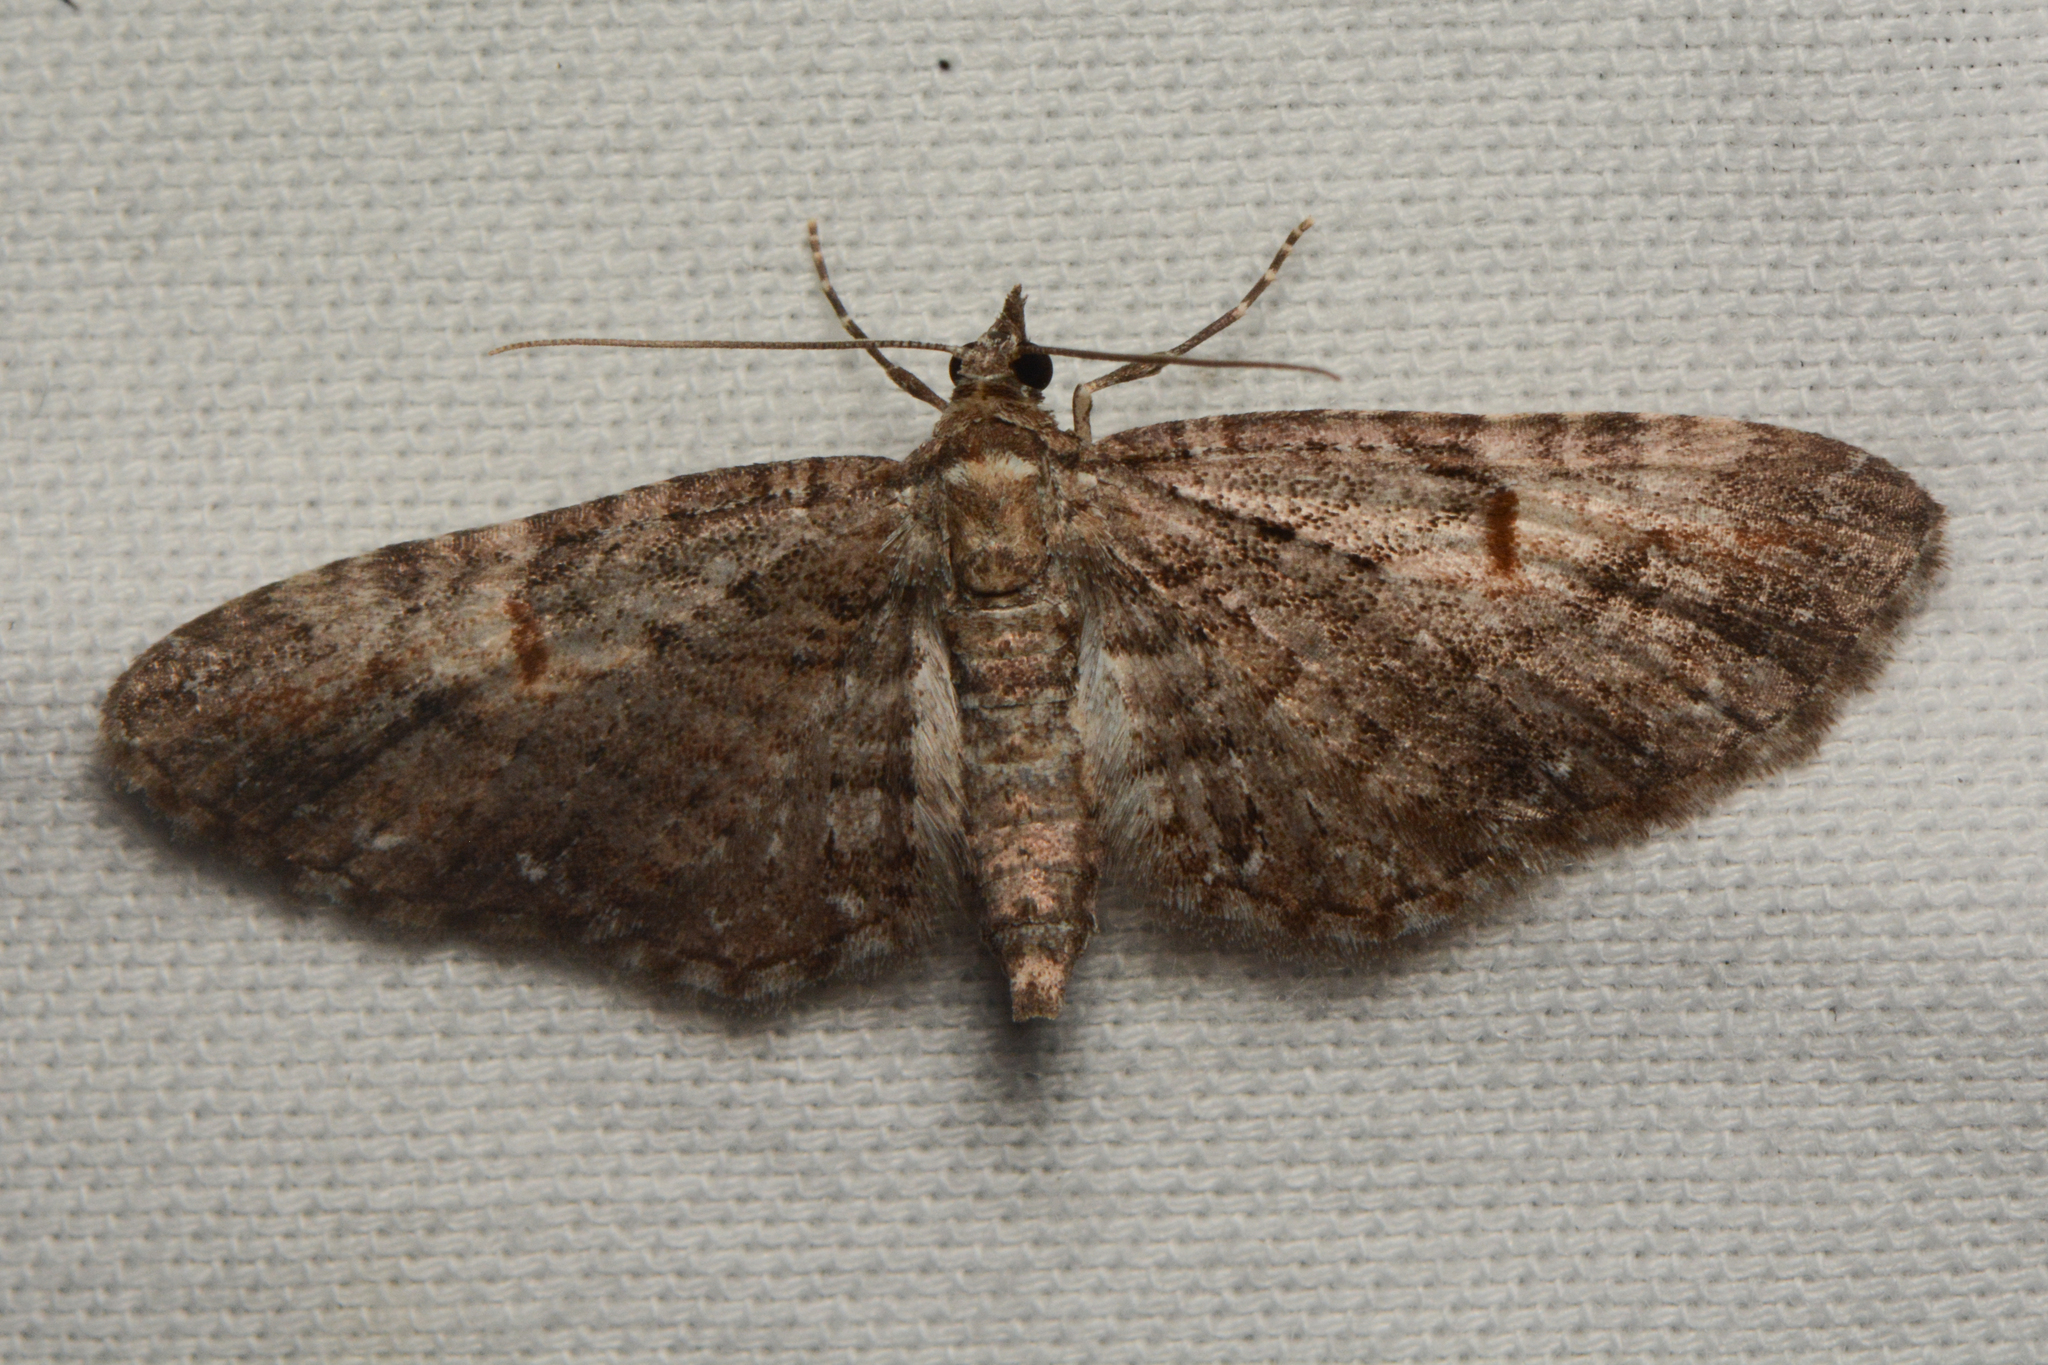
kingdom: Animalia
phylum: Arthropoda
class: Insecta
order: Lepidoptera
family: Geometridae
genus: Eupithecia
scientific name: Eupithecia graefii
